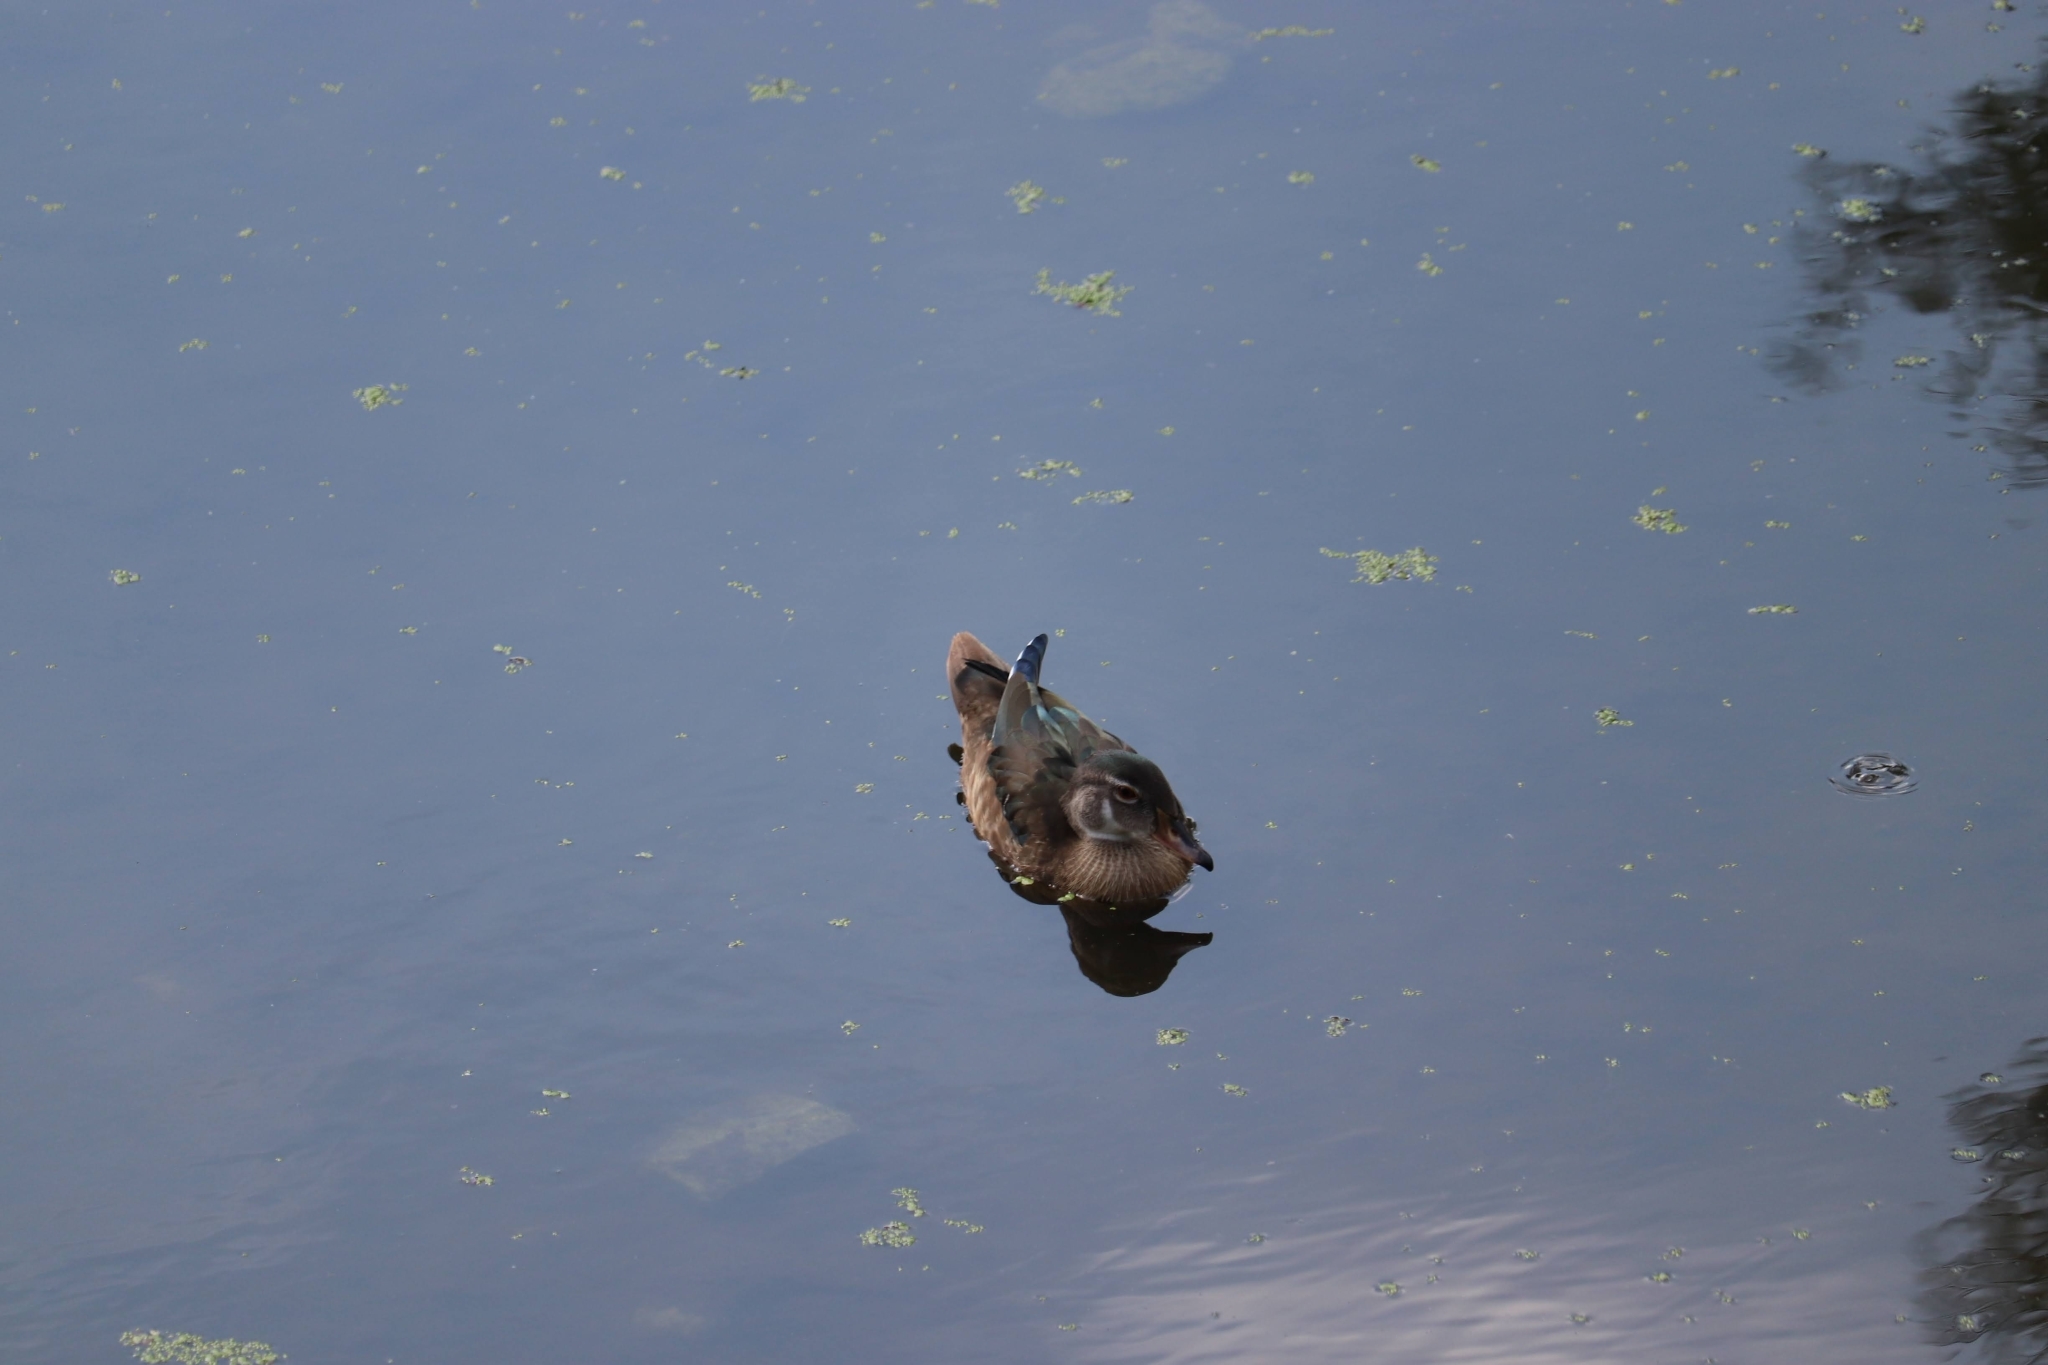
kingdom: Animalia
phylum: Chordata
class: Aves
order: Anseriformes
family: Anatidae
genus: Aix
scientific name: Aix sponsa
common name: Wood duck
